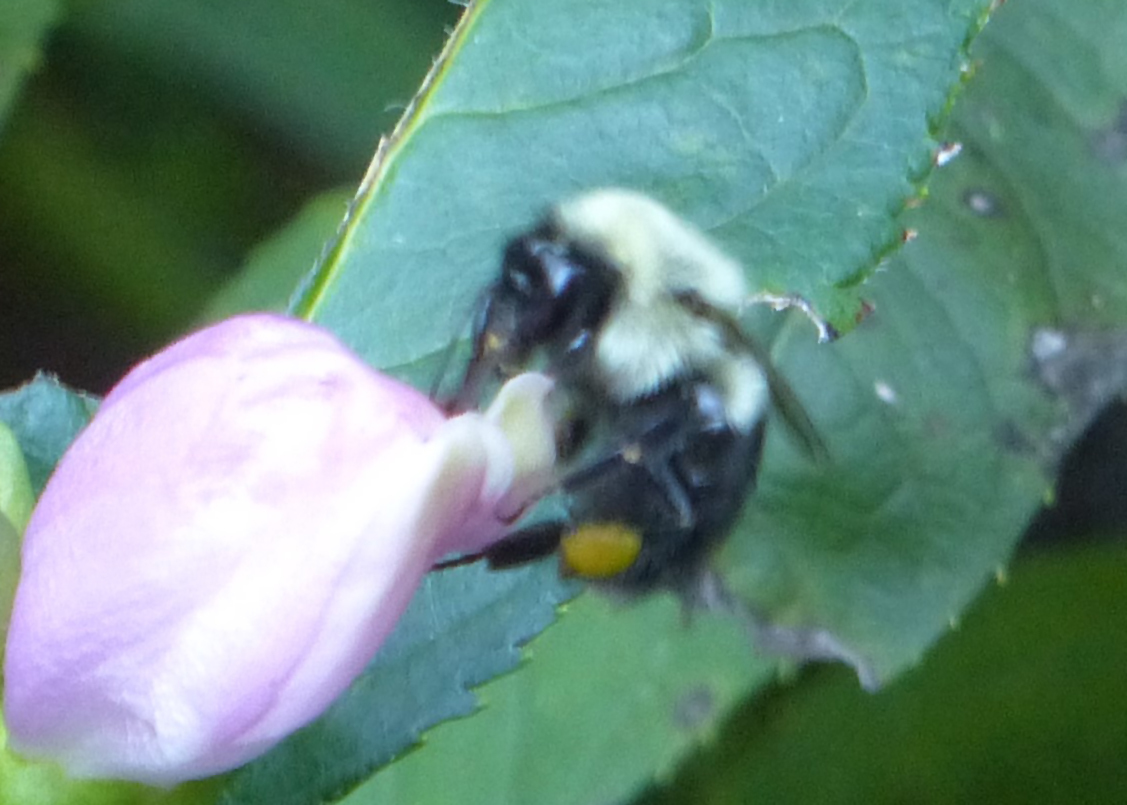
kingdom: Animalia
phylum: Arthropoda
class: Insecta
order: Hymenoptera
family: Apidae
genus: Bombus
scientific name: Bombus impatiens
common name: Common eastern bumble bee
